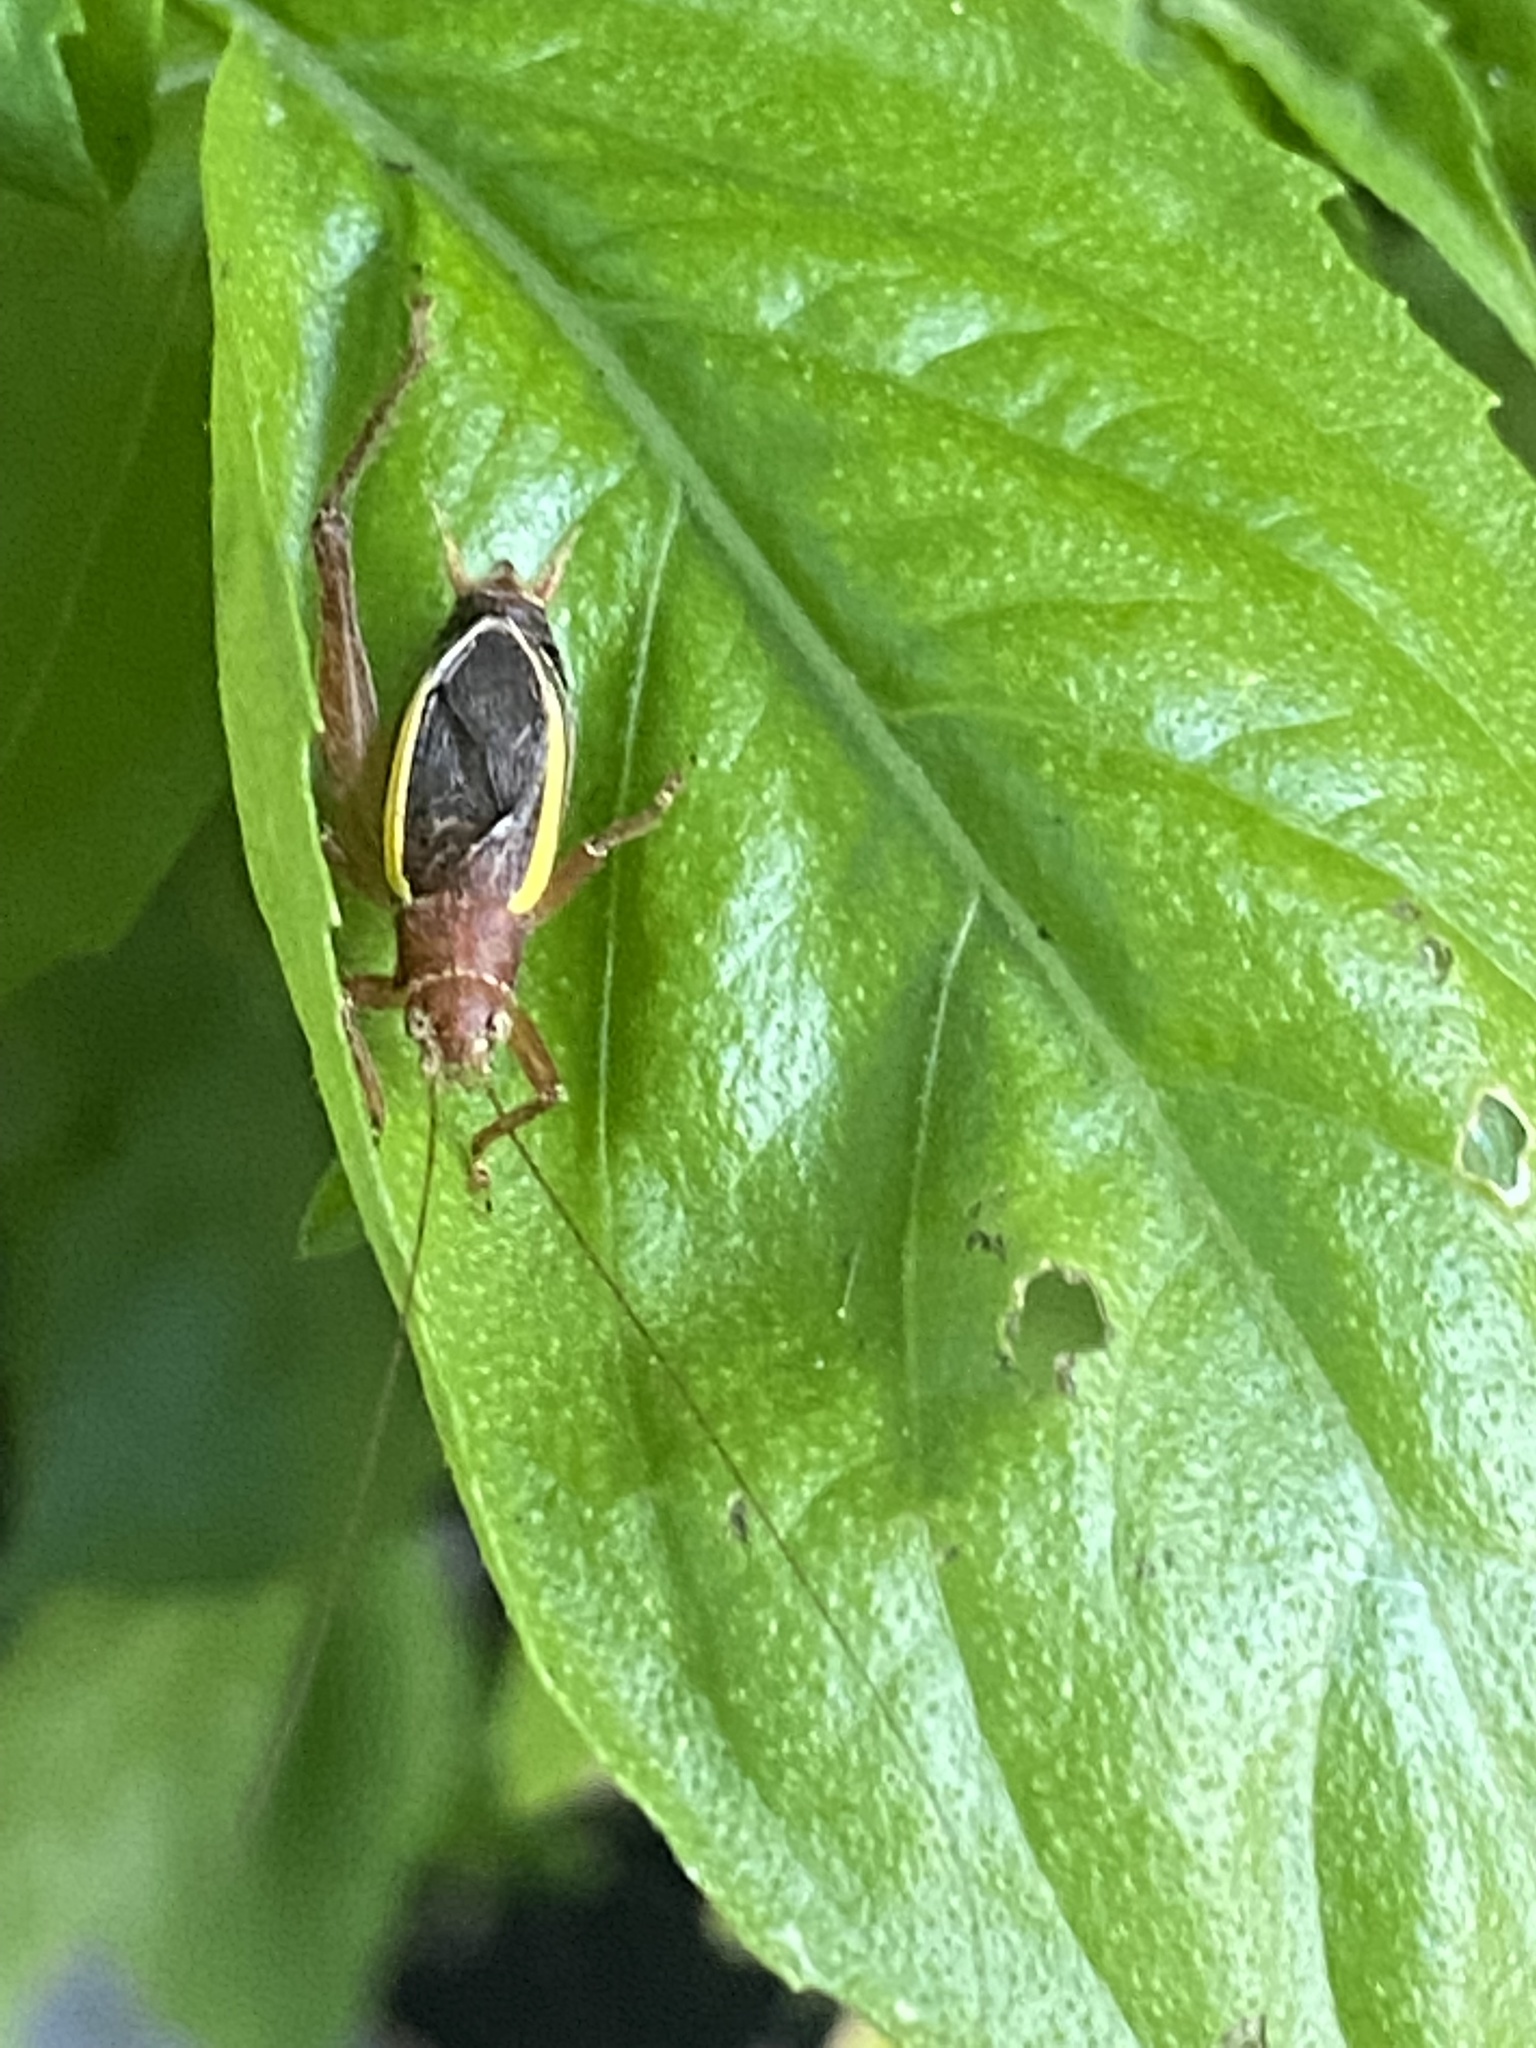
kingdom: Animalia
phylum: Arthropoda
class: Insecta
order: Orthoptera
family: Gryllidae
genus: Hapithus
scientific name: Hapithus agitator
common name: Restless bush cricket
